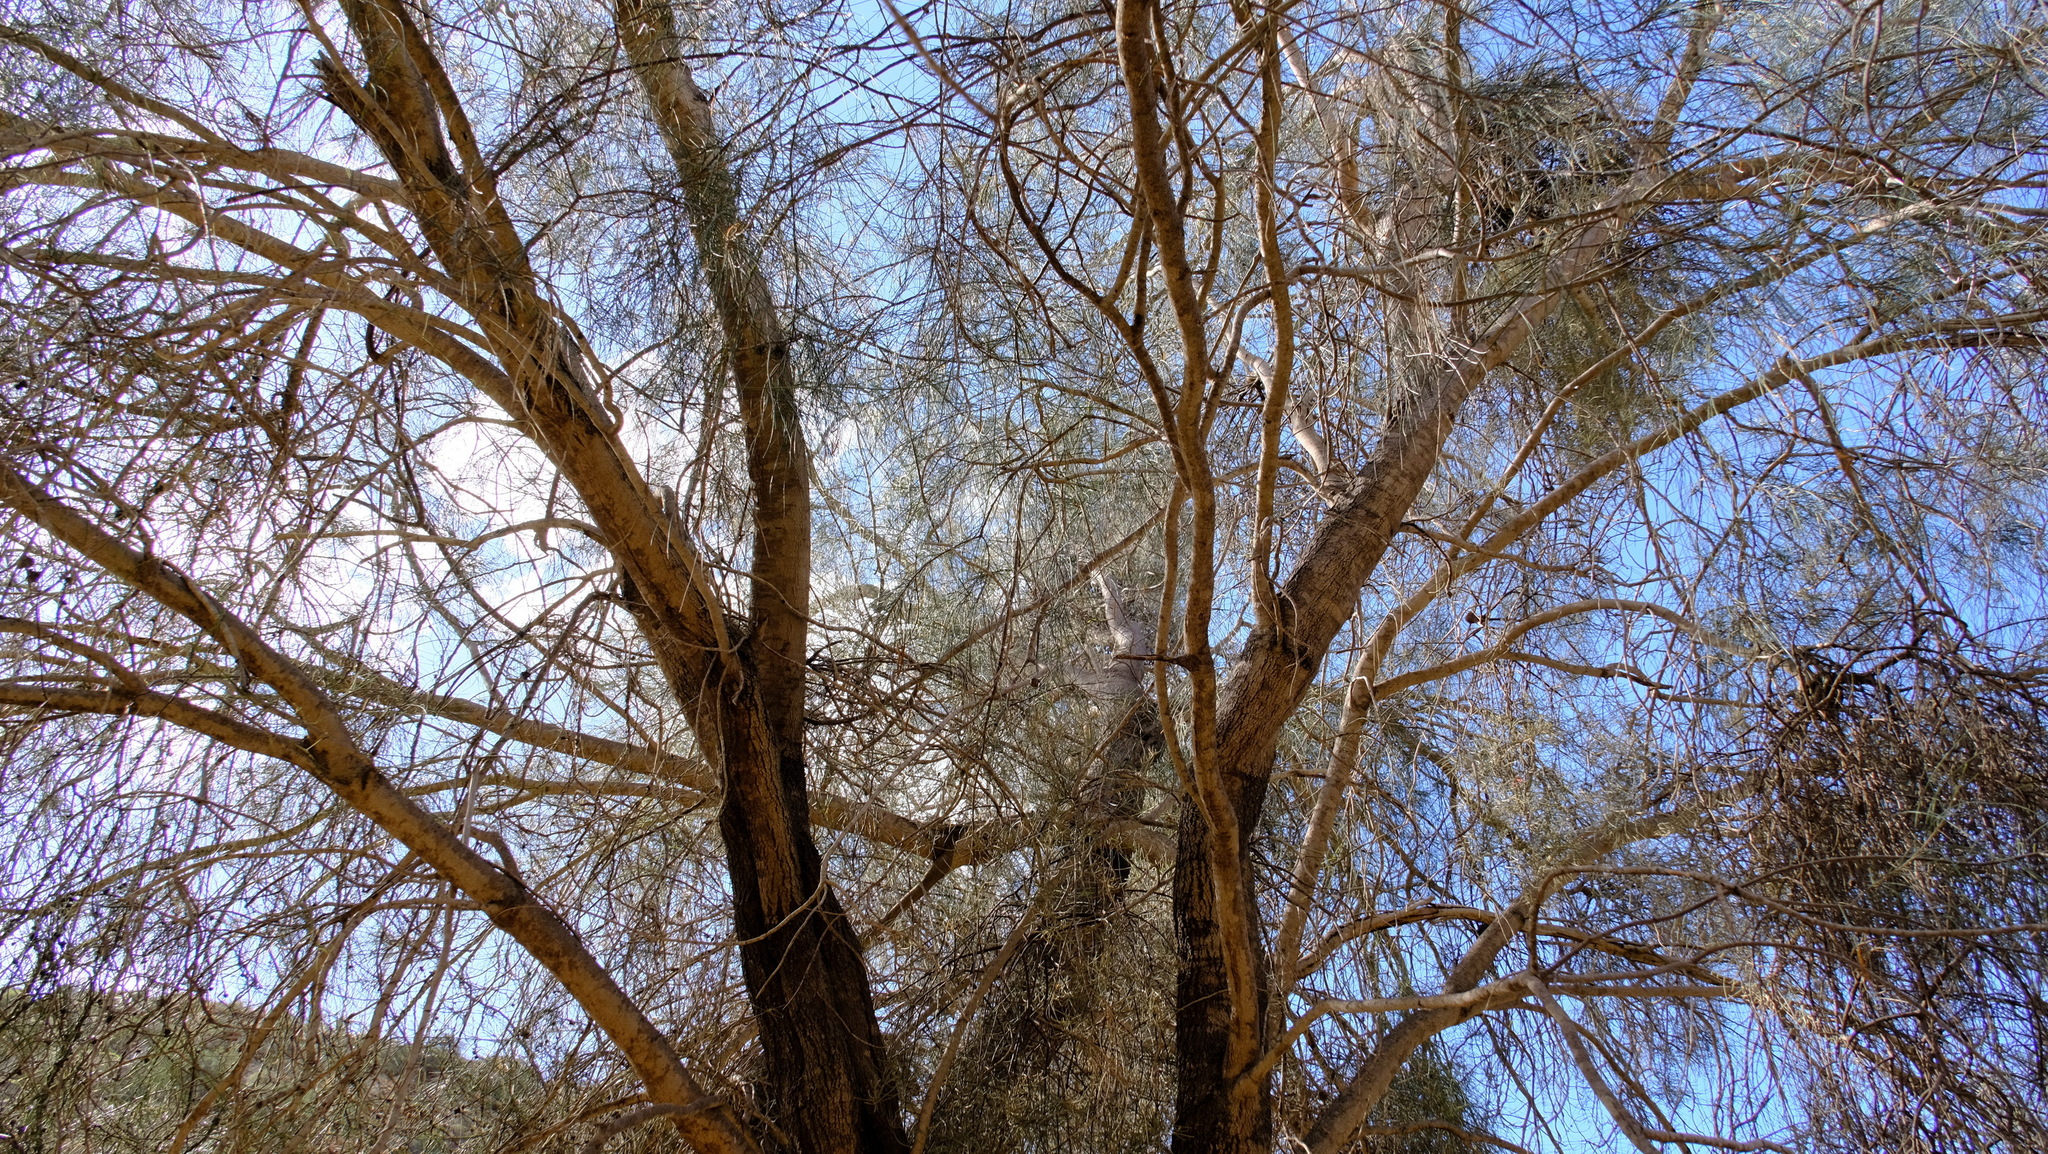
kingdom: Plantae
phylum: Tracheophyta
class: Magnoliopsida
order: Fagales
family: Casuarinaceae
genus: Casuarina
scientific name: Casuarina obesa
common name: Swamp she-oak
